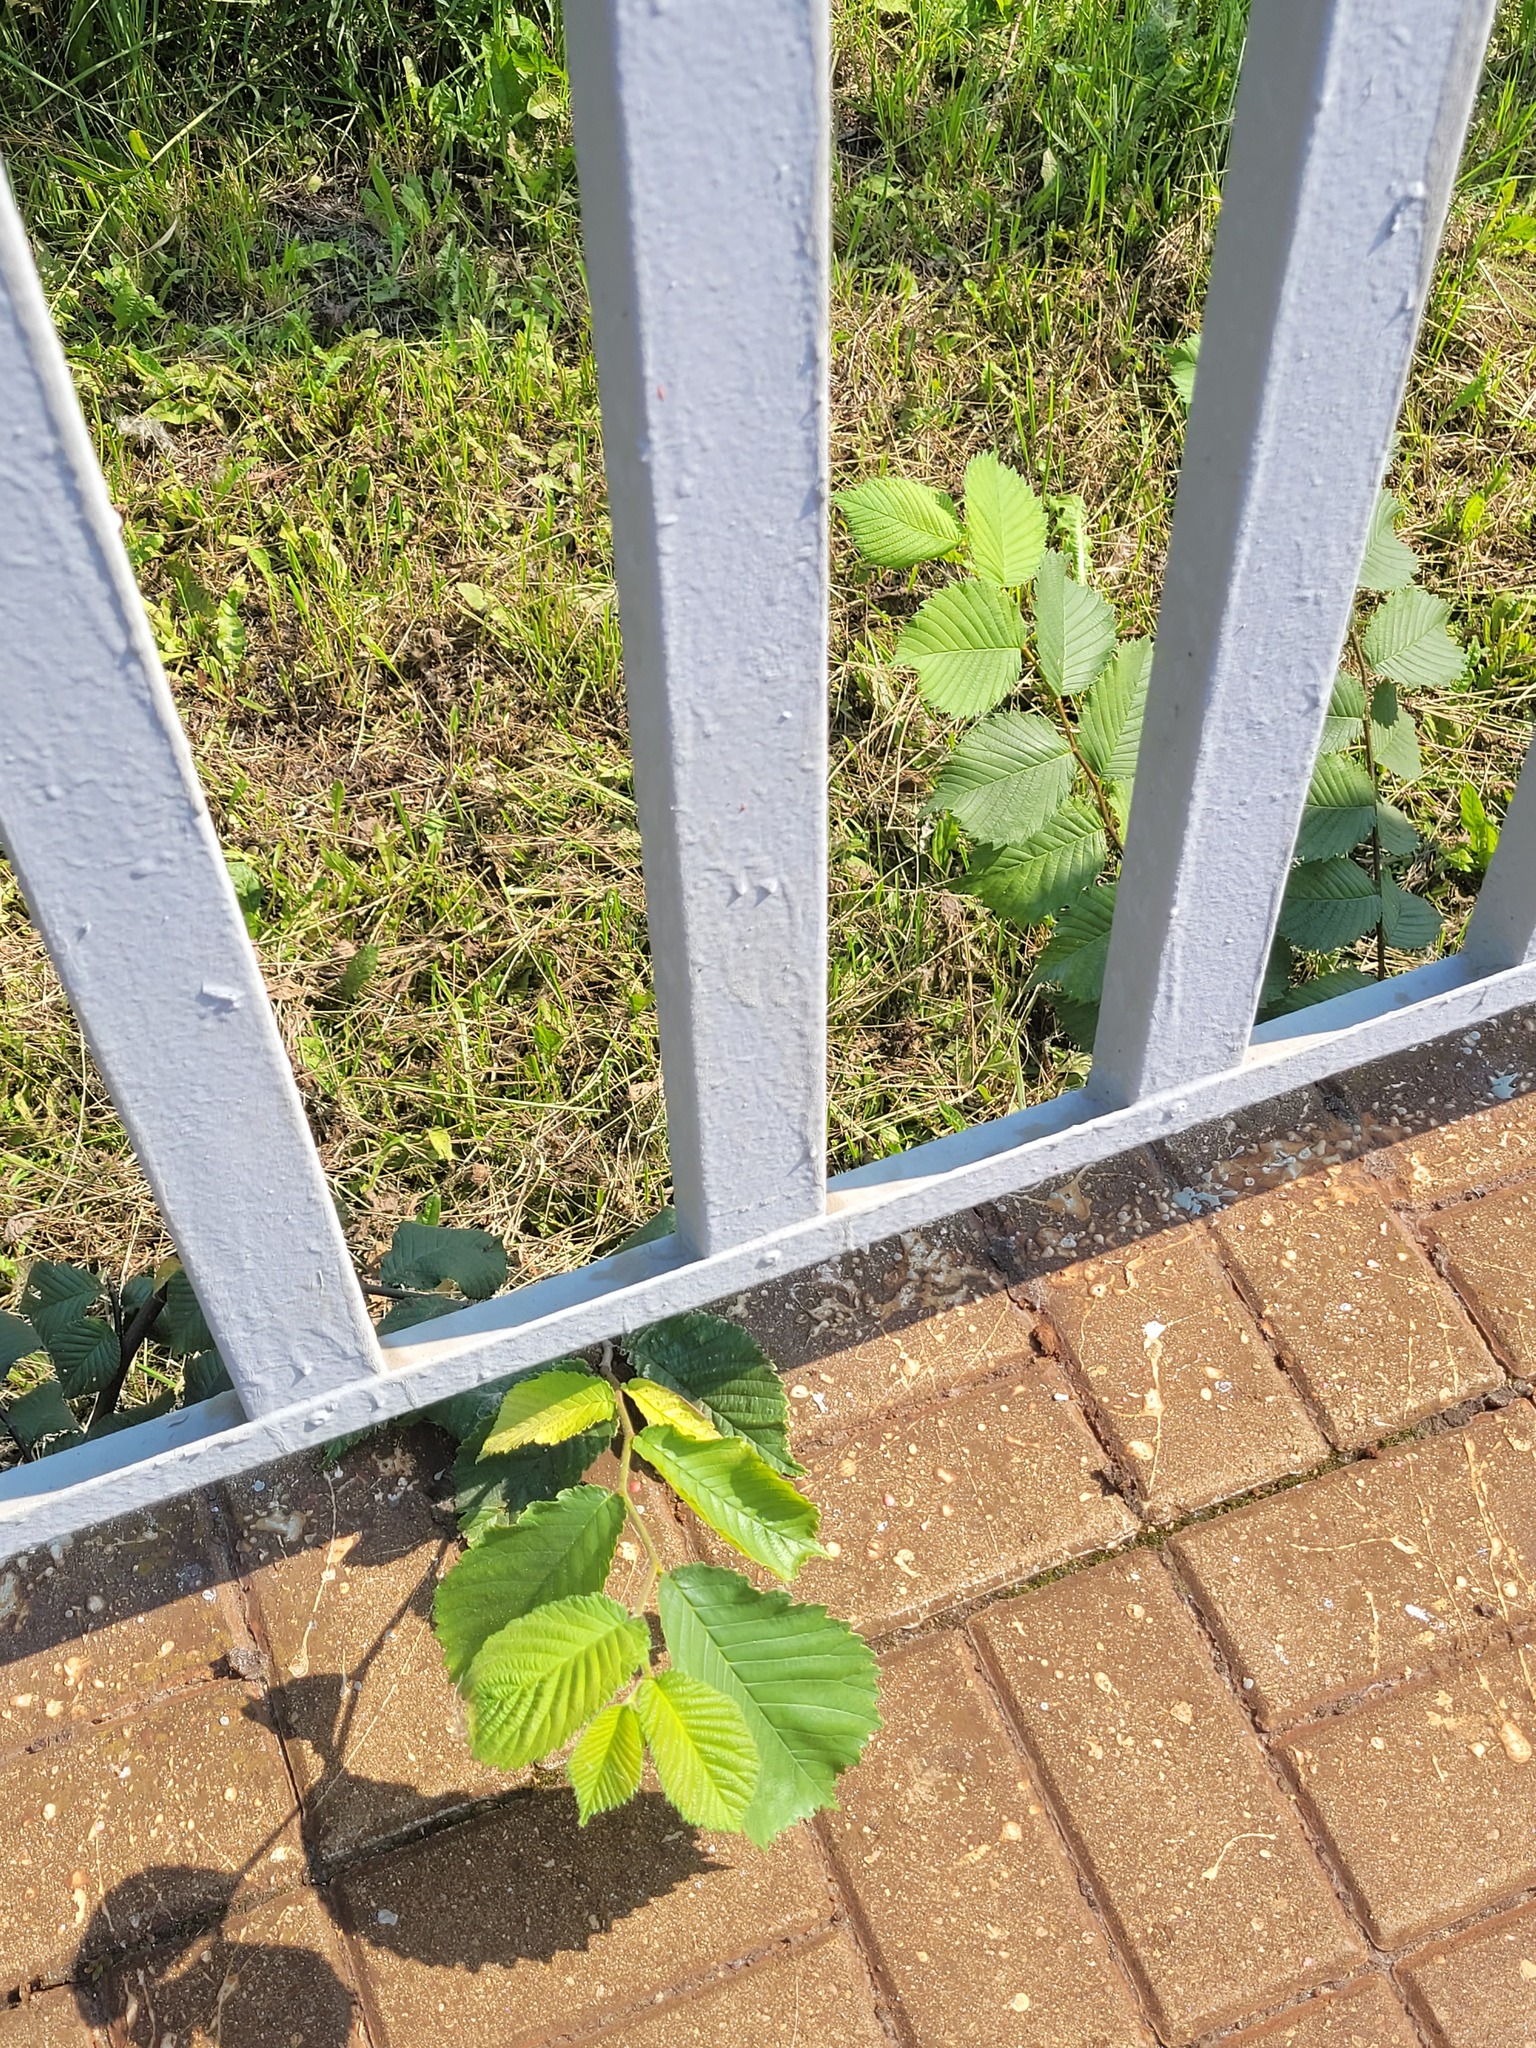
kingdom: Plantae
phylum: Tracheophyta
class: Magnoliopsida
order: Rosales
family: Ulmaceae
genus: Ulmus
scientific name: Ulmus glabra
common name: Wych elm
